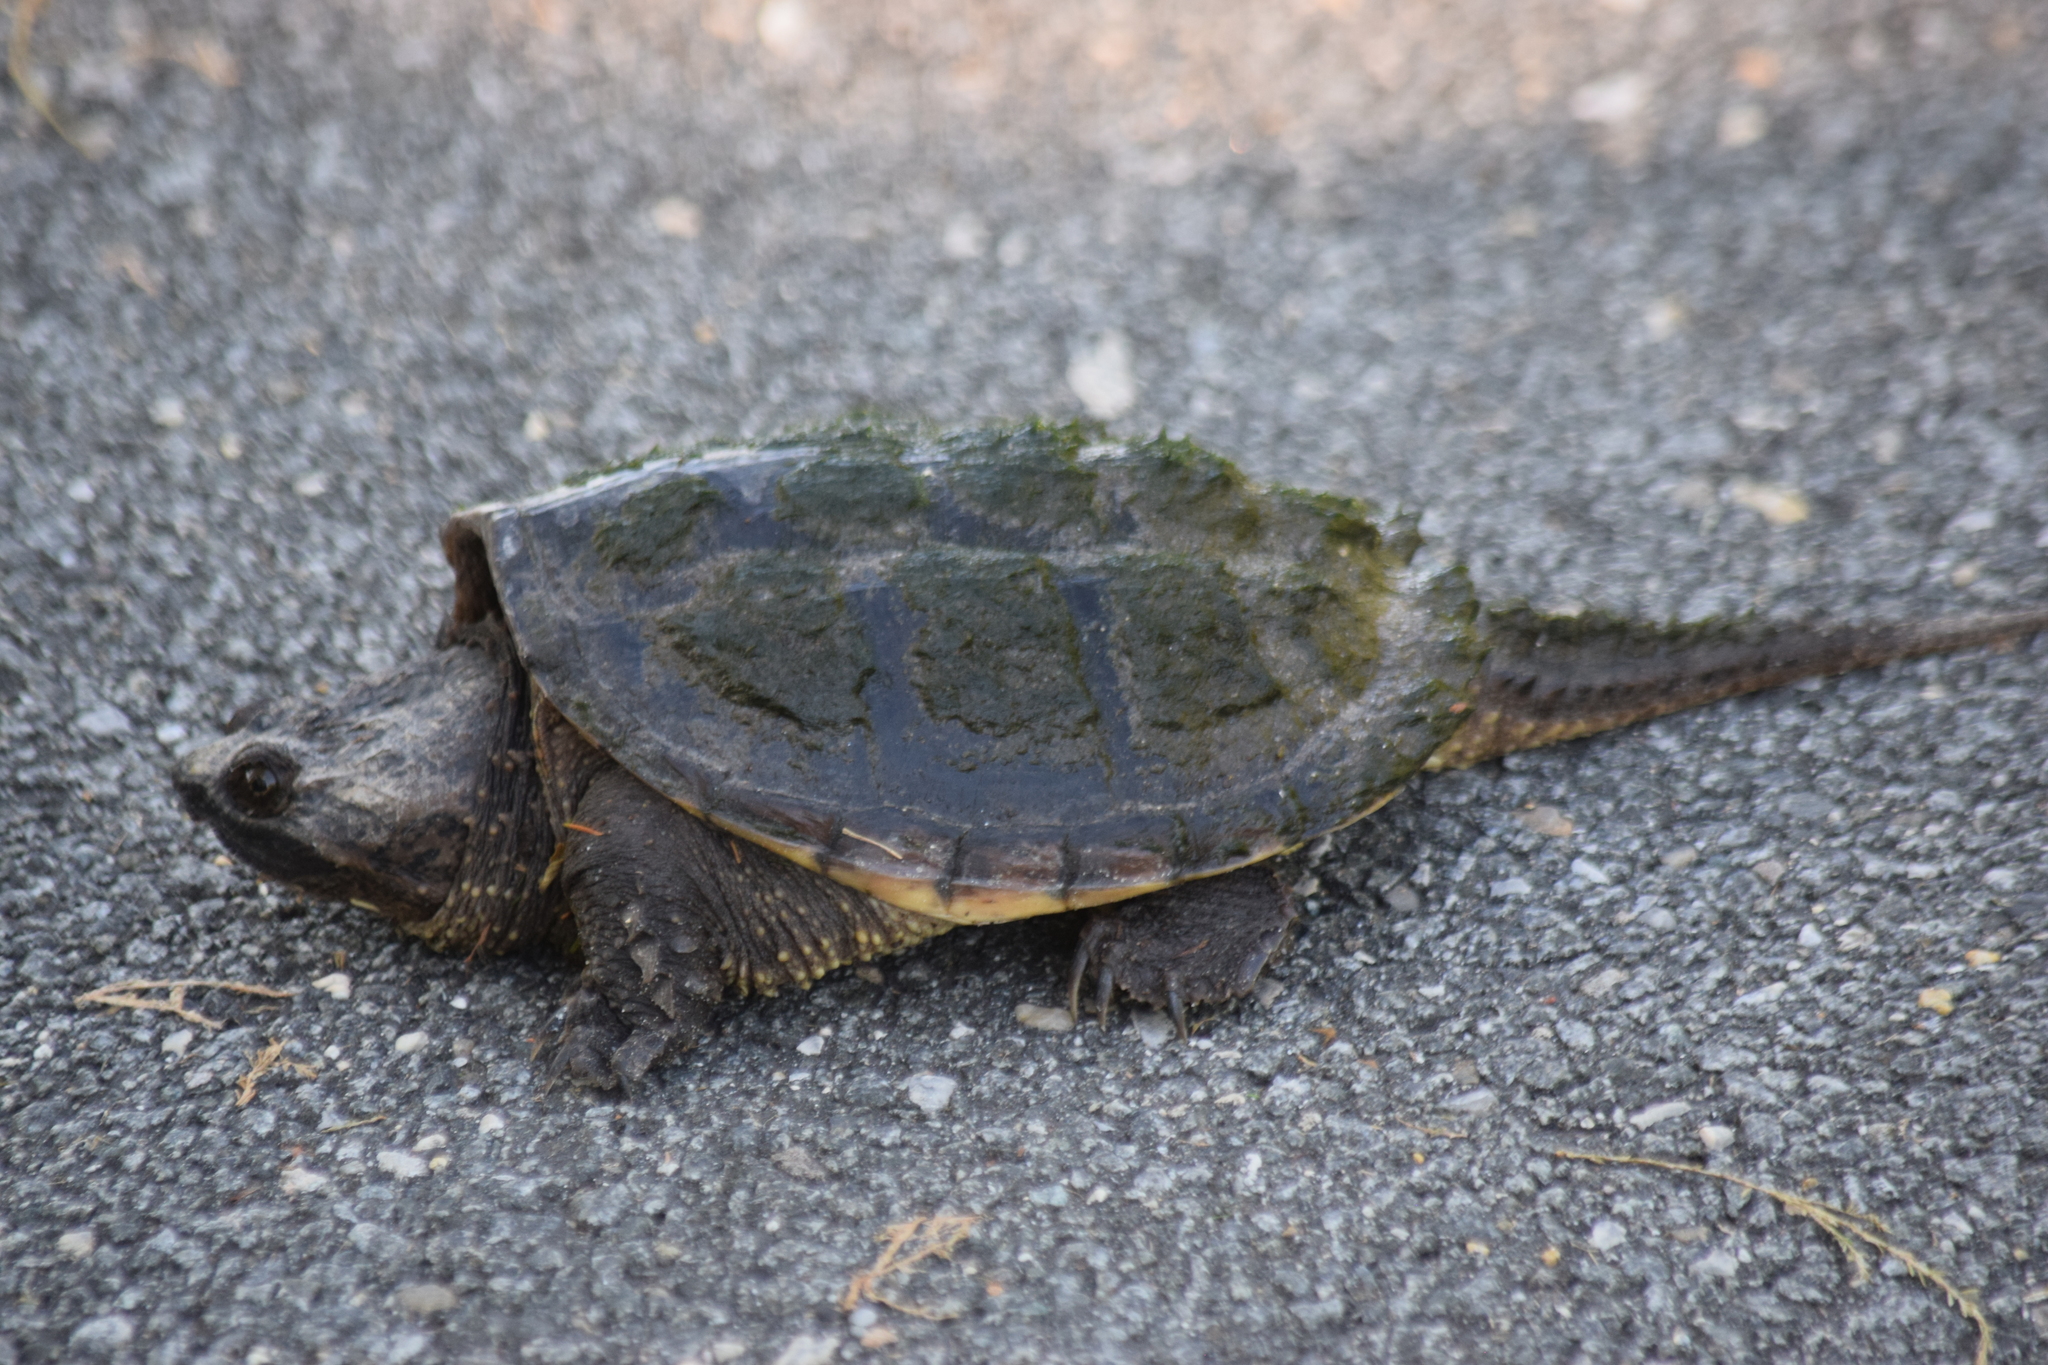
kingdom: Animalia
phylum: Chordata
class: Testudines
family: Chelydridae
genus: Chelydra
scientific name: Chelydra serpentina
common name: Common snapping turtle
